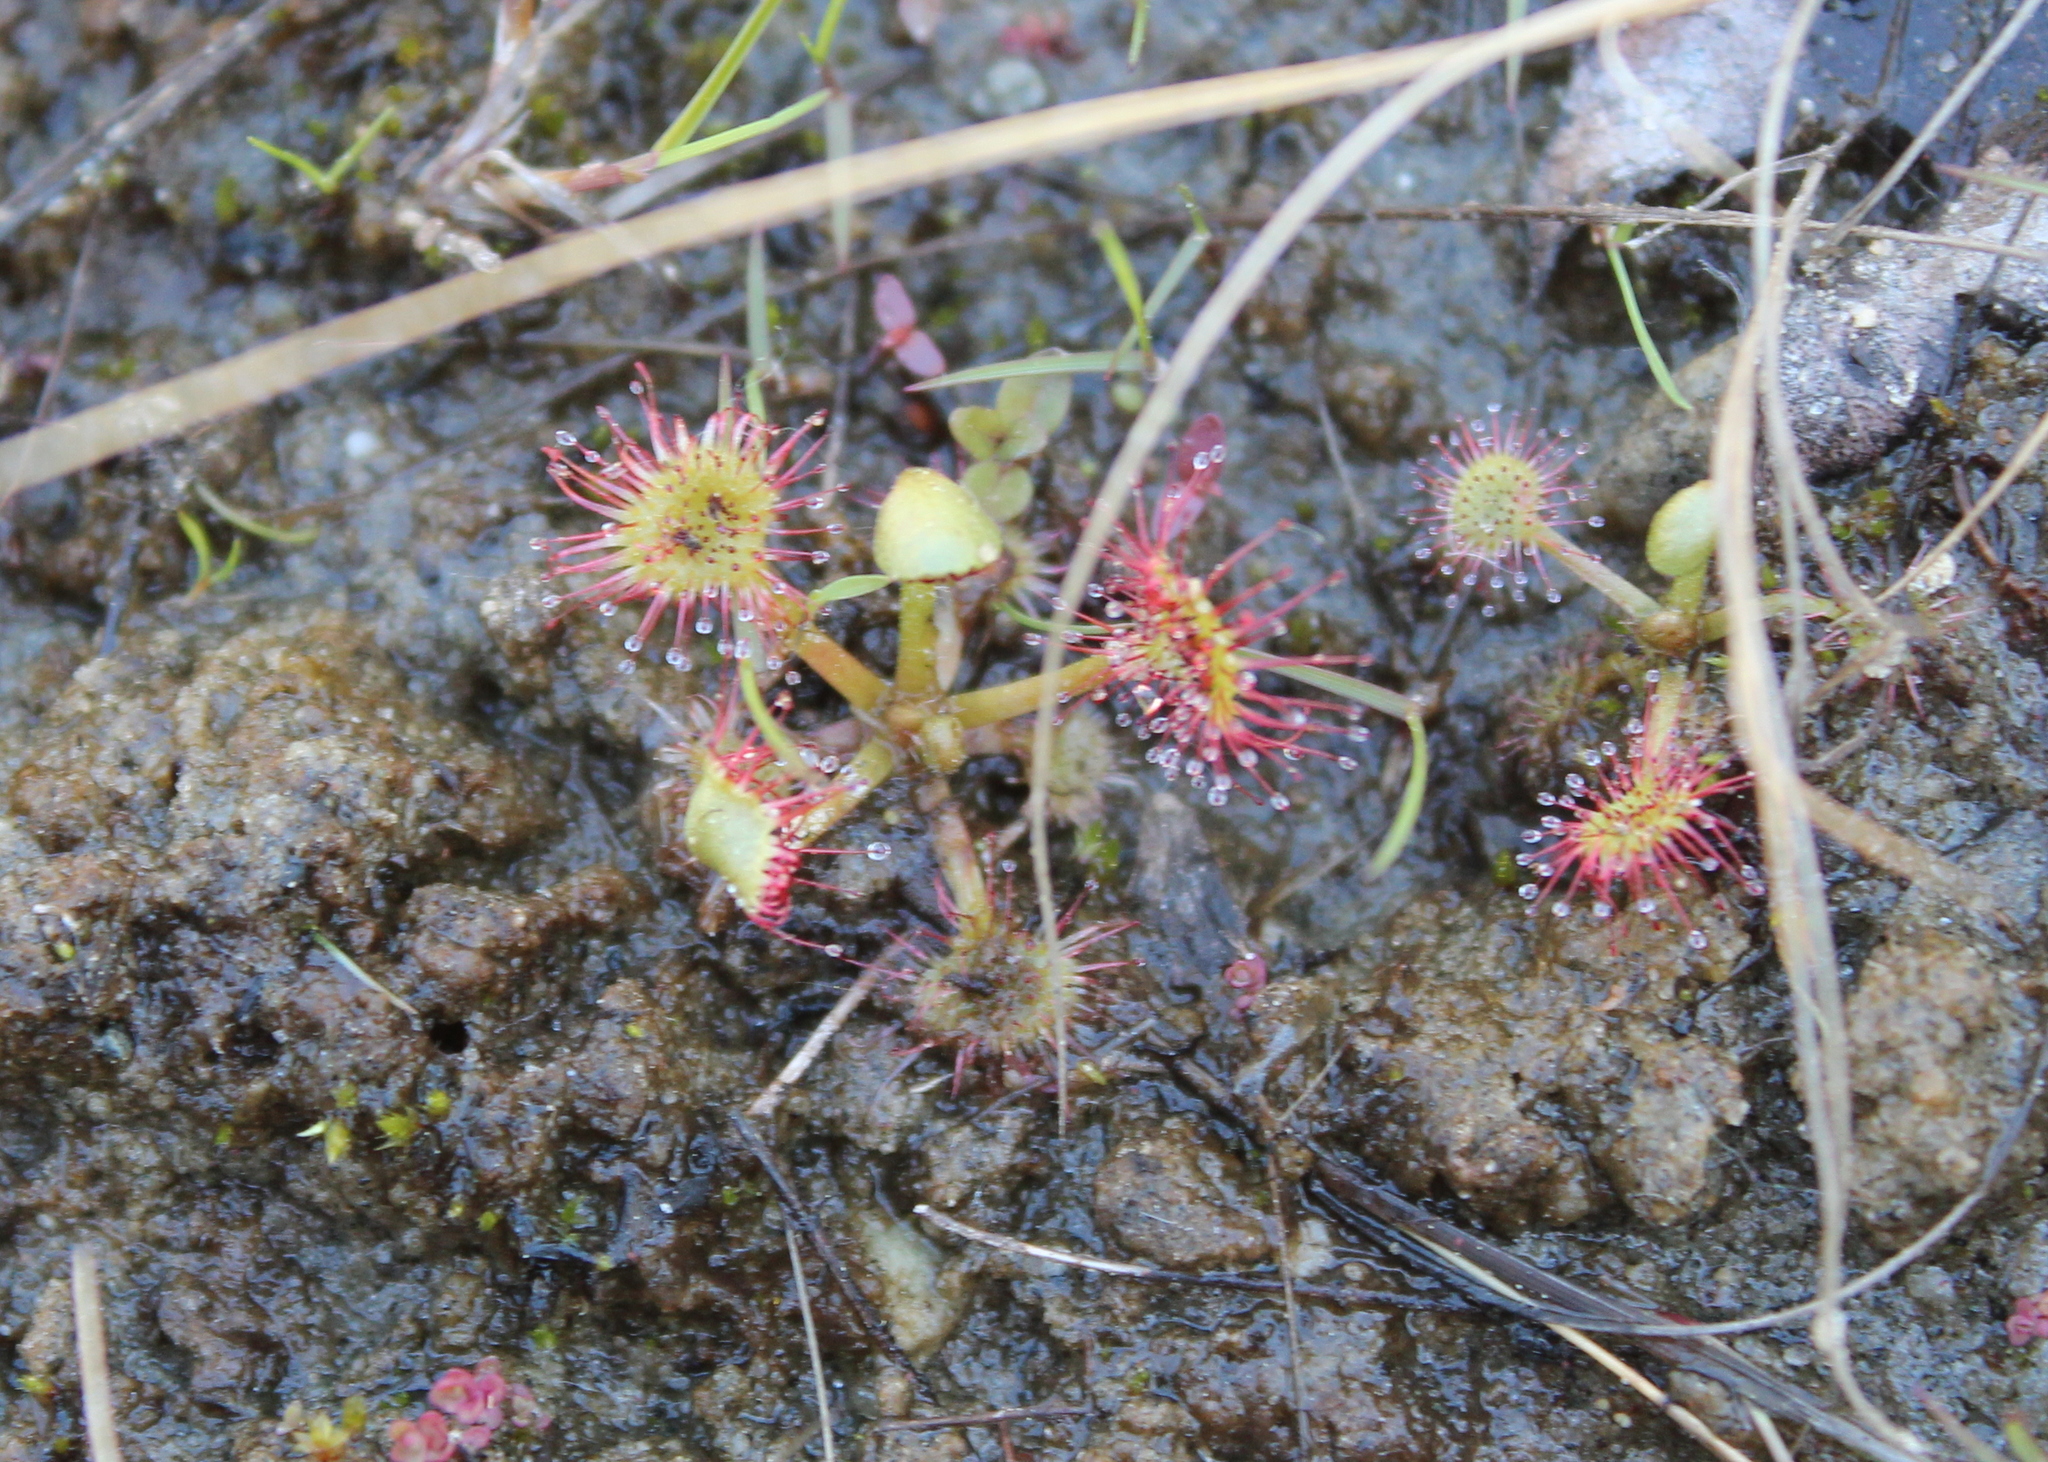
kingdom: Plantae
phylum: Tracheophyta
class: Magnoliopsida
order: Caryophyllales
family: Droseraceae
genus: Drosera
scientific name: Drosera rotundifolia
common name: Round-leaved sundew
